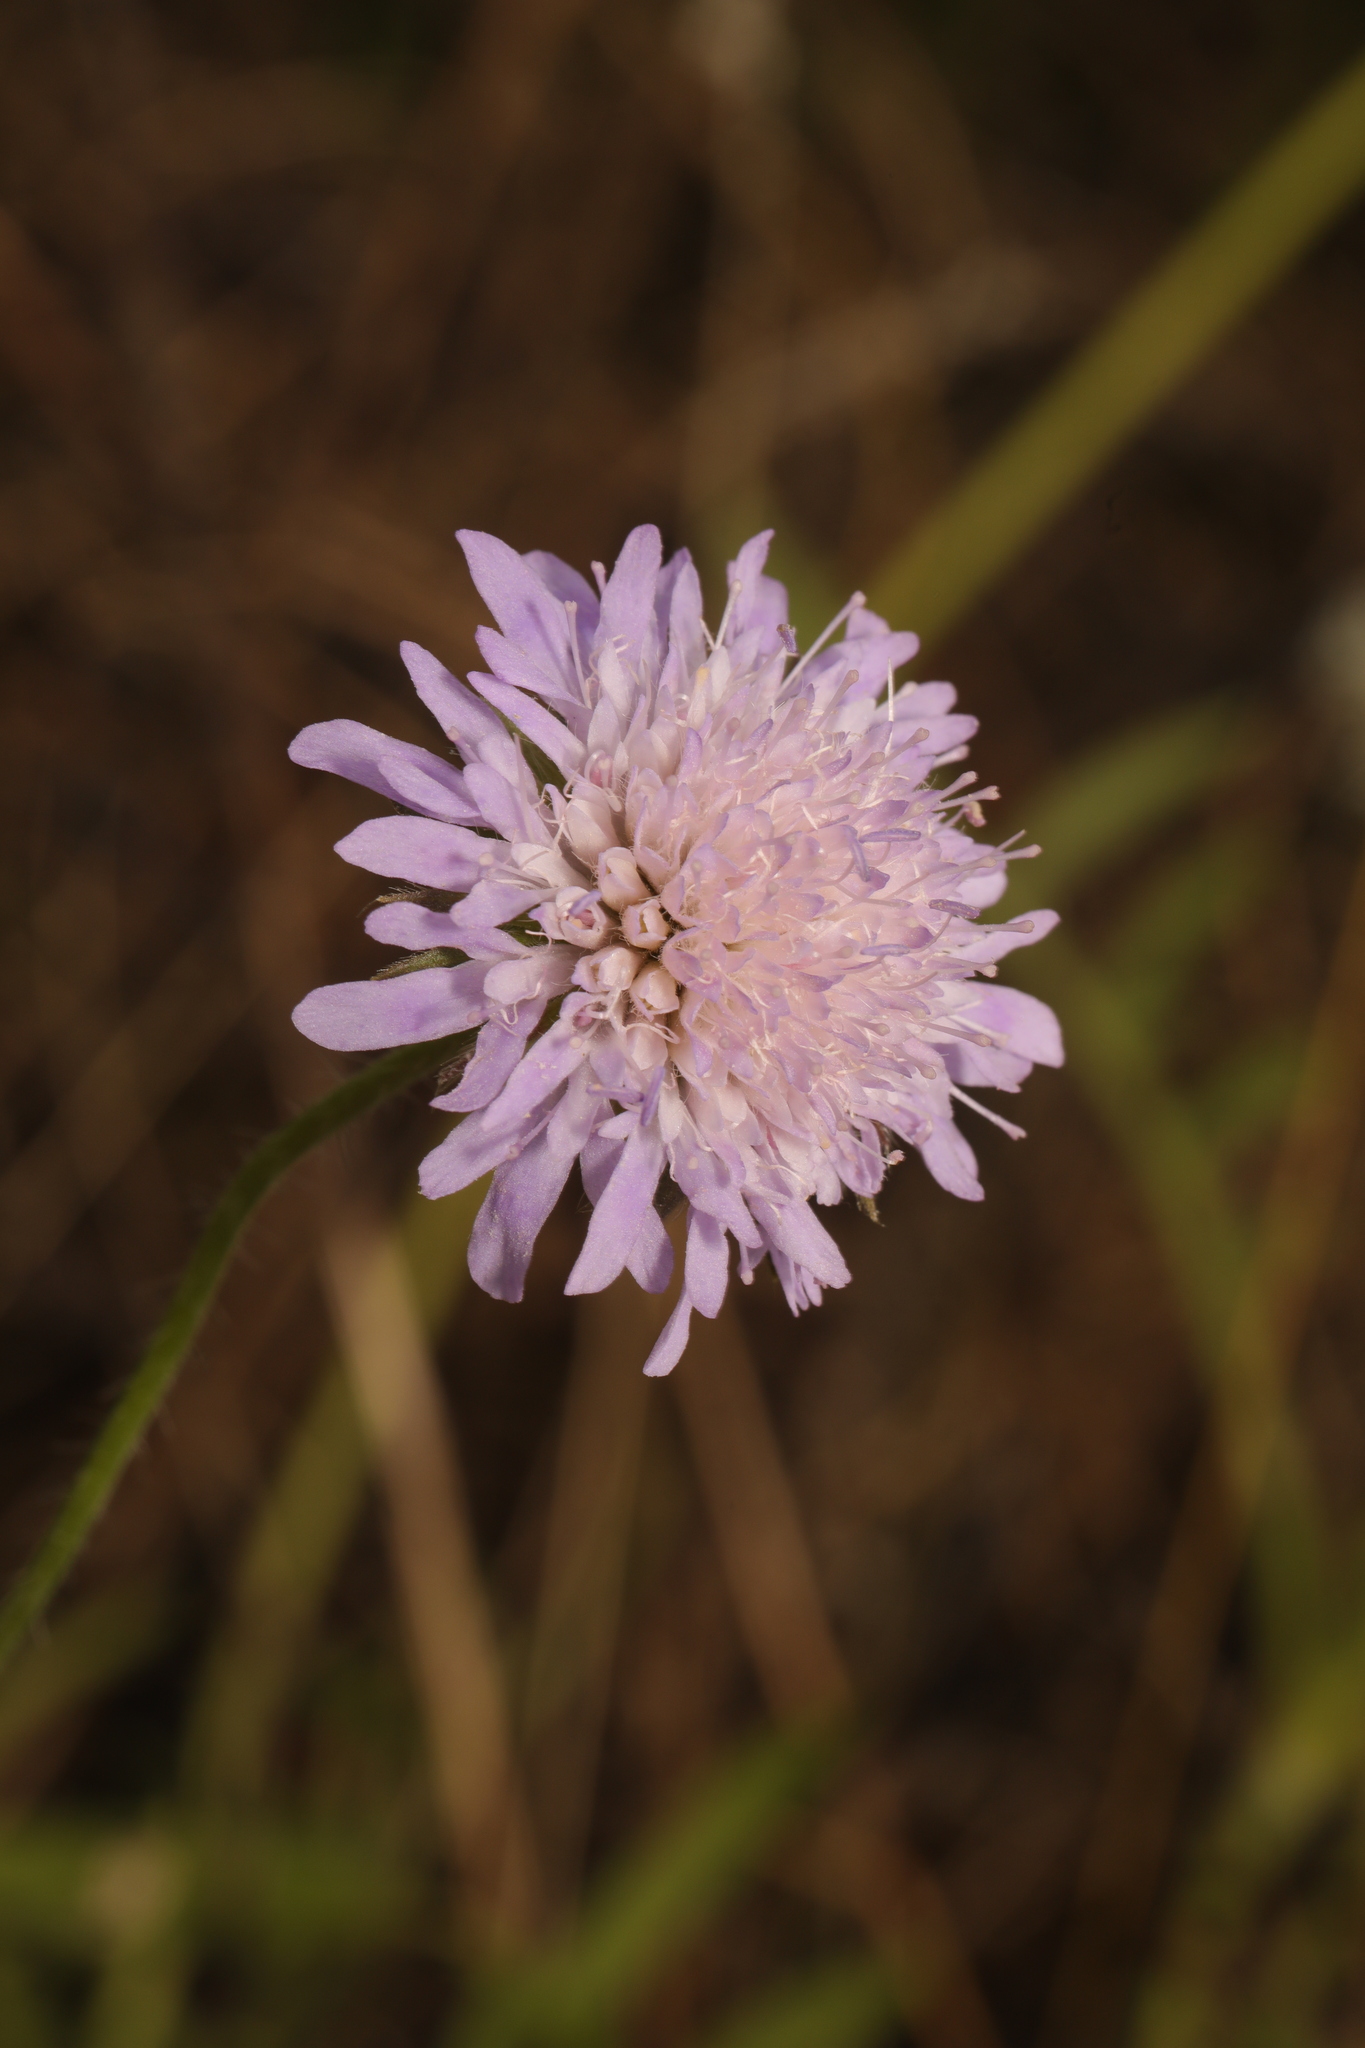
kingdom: Plantae
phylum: Tracheophyta
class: Magnoliopsida
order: Dipsacales
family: Caprifoliaceae
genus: Knautia
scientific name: Knautia arvensis
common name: Field scabiosa
